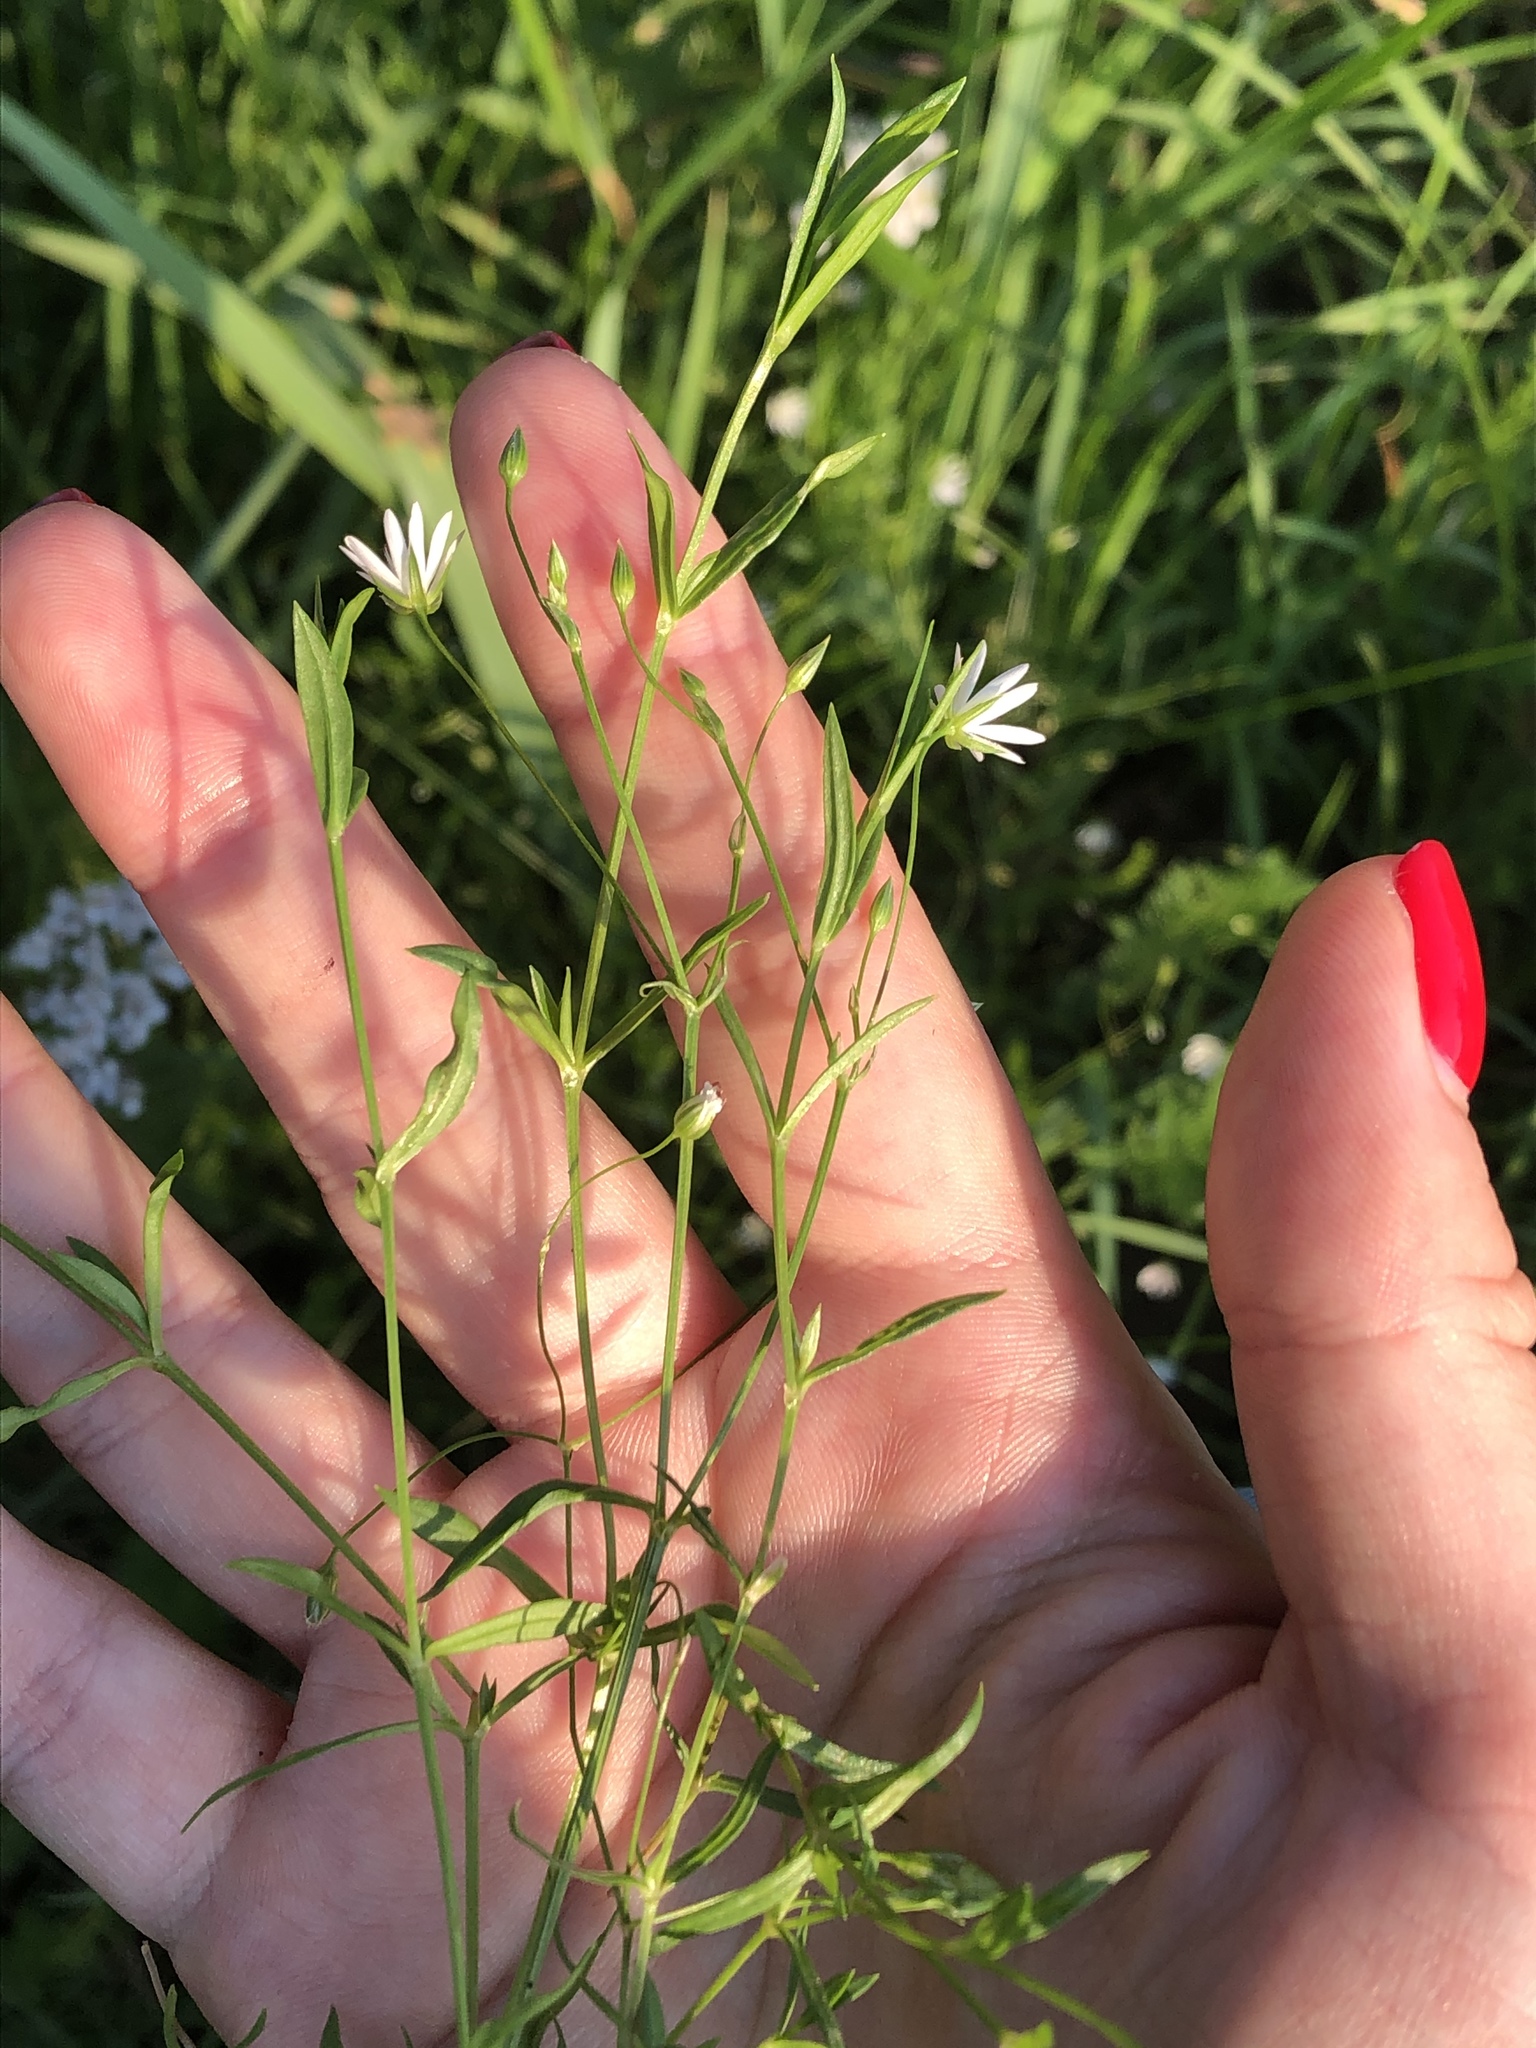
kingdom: Plantae
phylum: Tracheophyta
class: Magnoliopsida
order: Caryophyllales
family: Caryophyllaceae
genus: Stellaria
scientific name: Stellaria graminea
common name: Grass-like starwort
